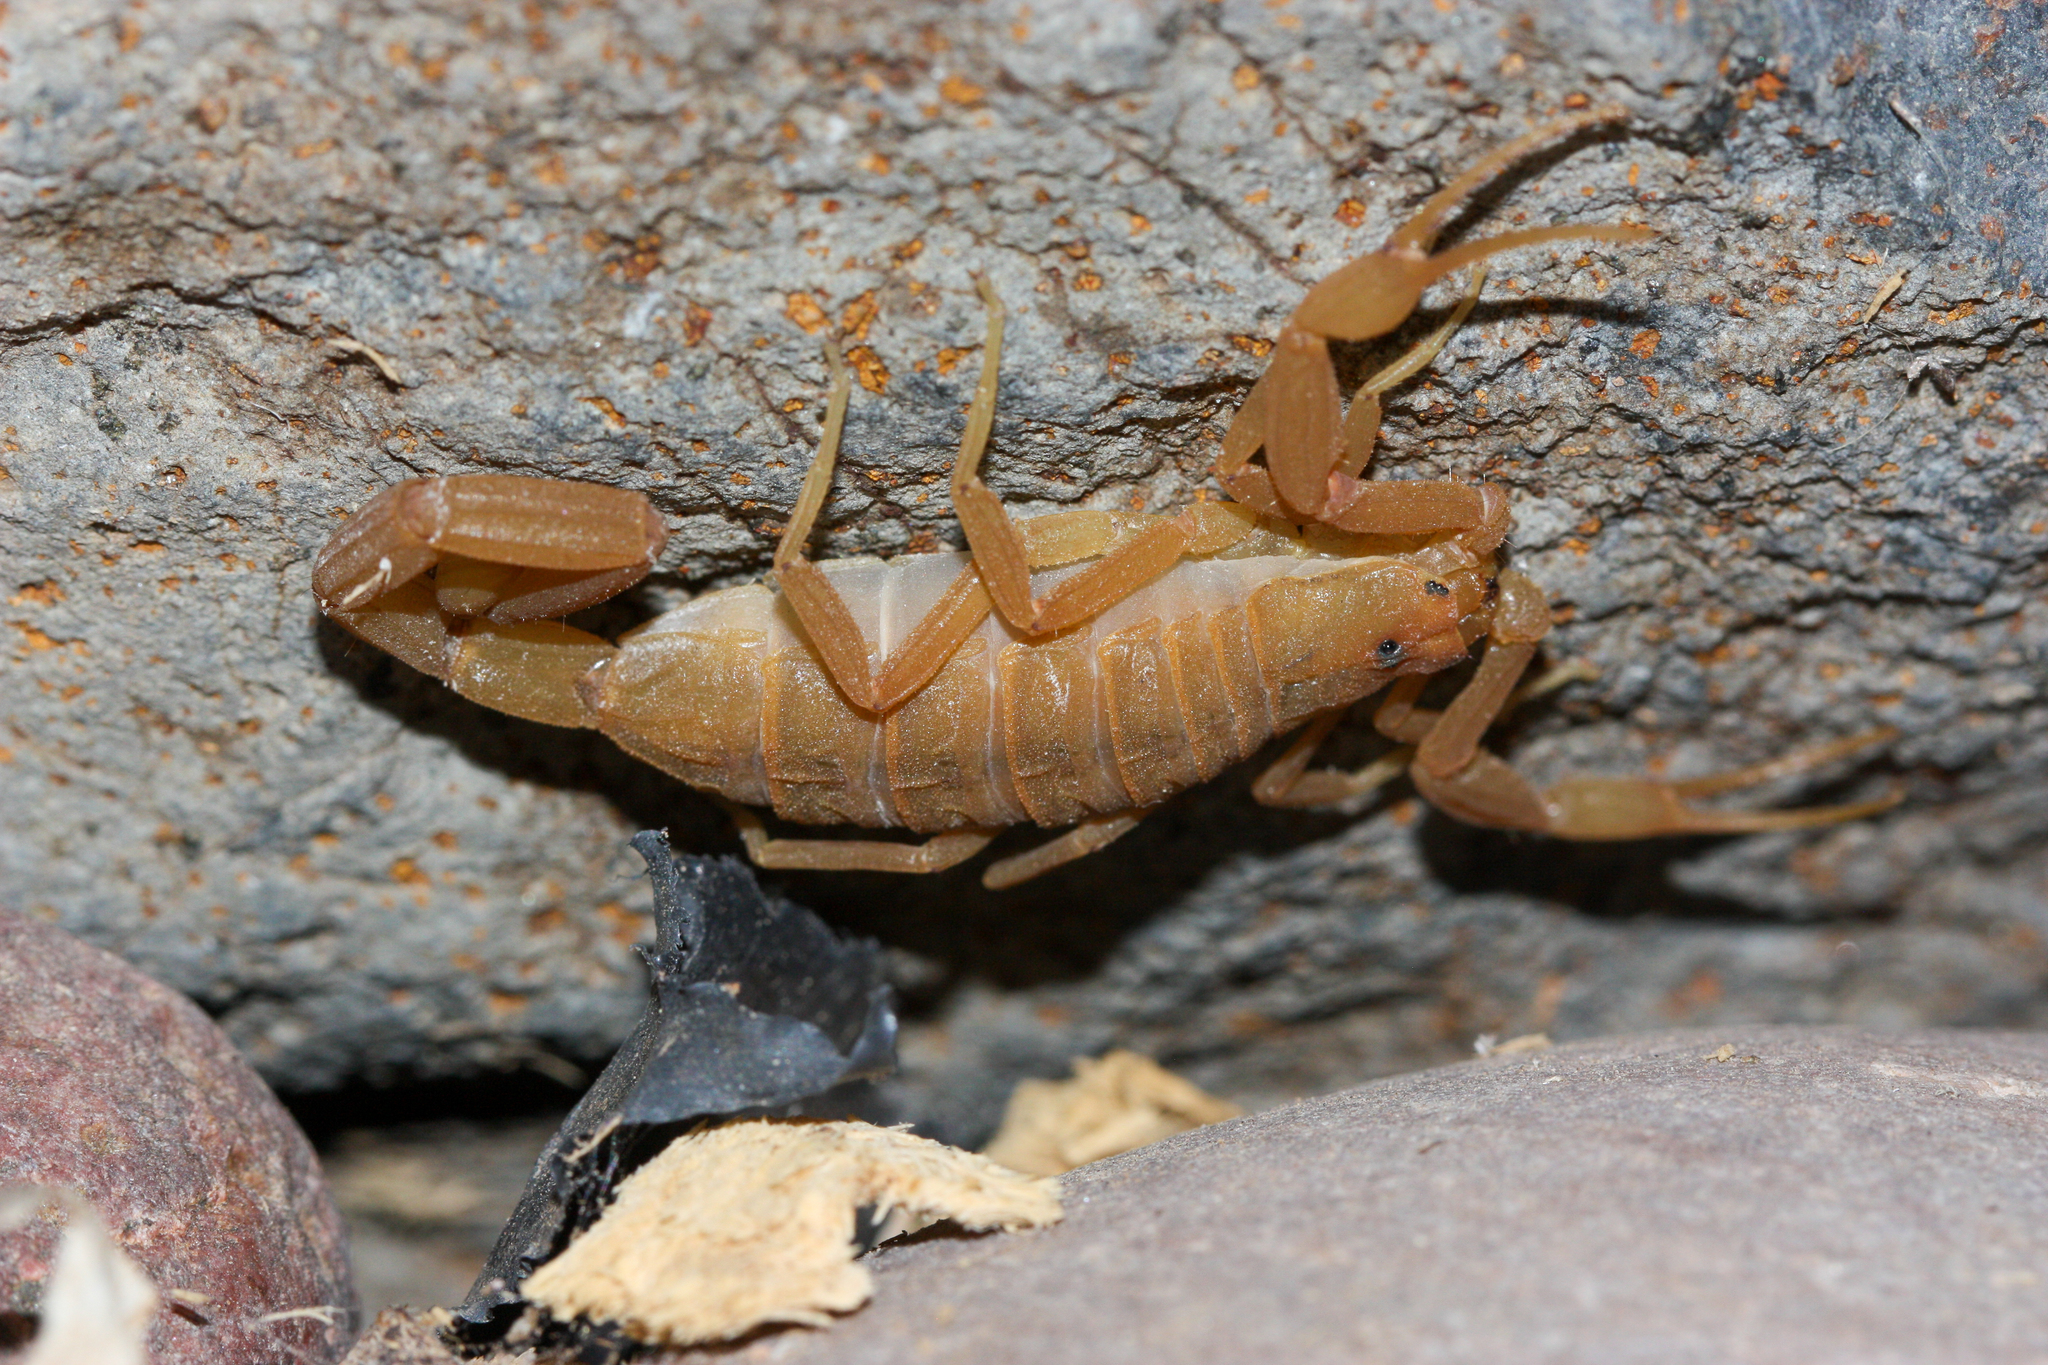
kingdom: Animalia
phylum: Arthropoda
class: Arachnida
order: Scorpiones
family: Buthidae
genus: Centruroides
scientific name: Centruroides sculpturatus
